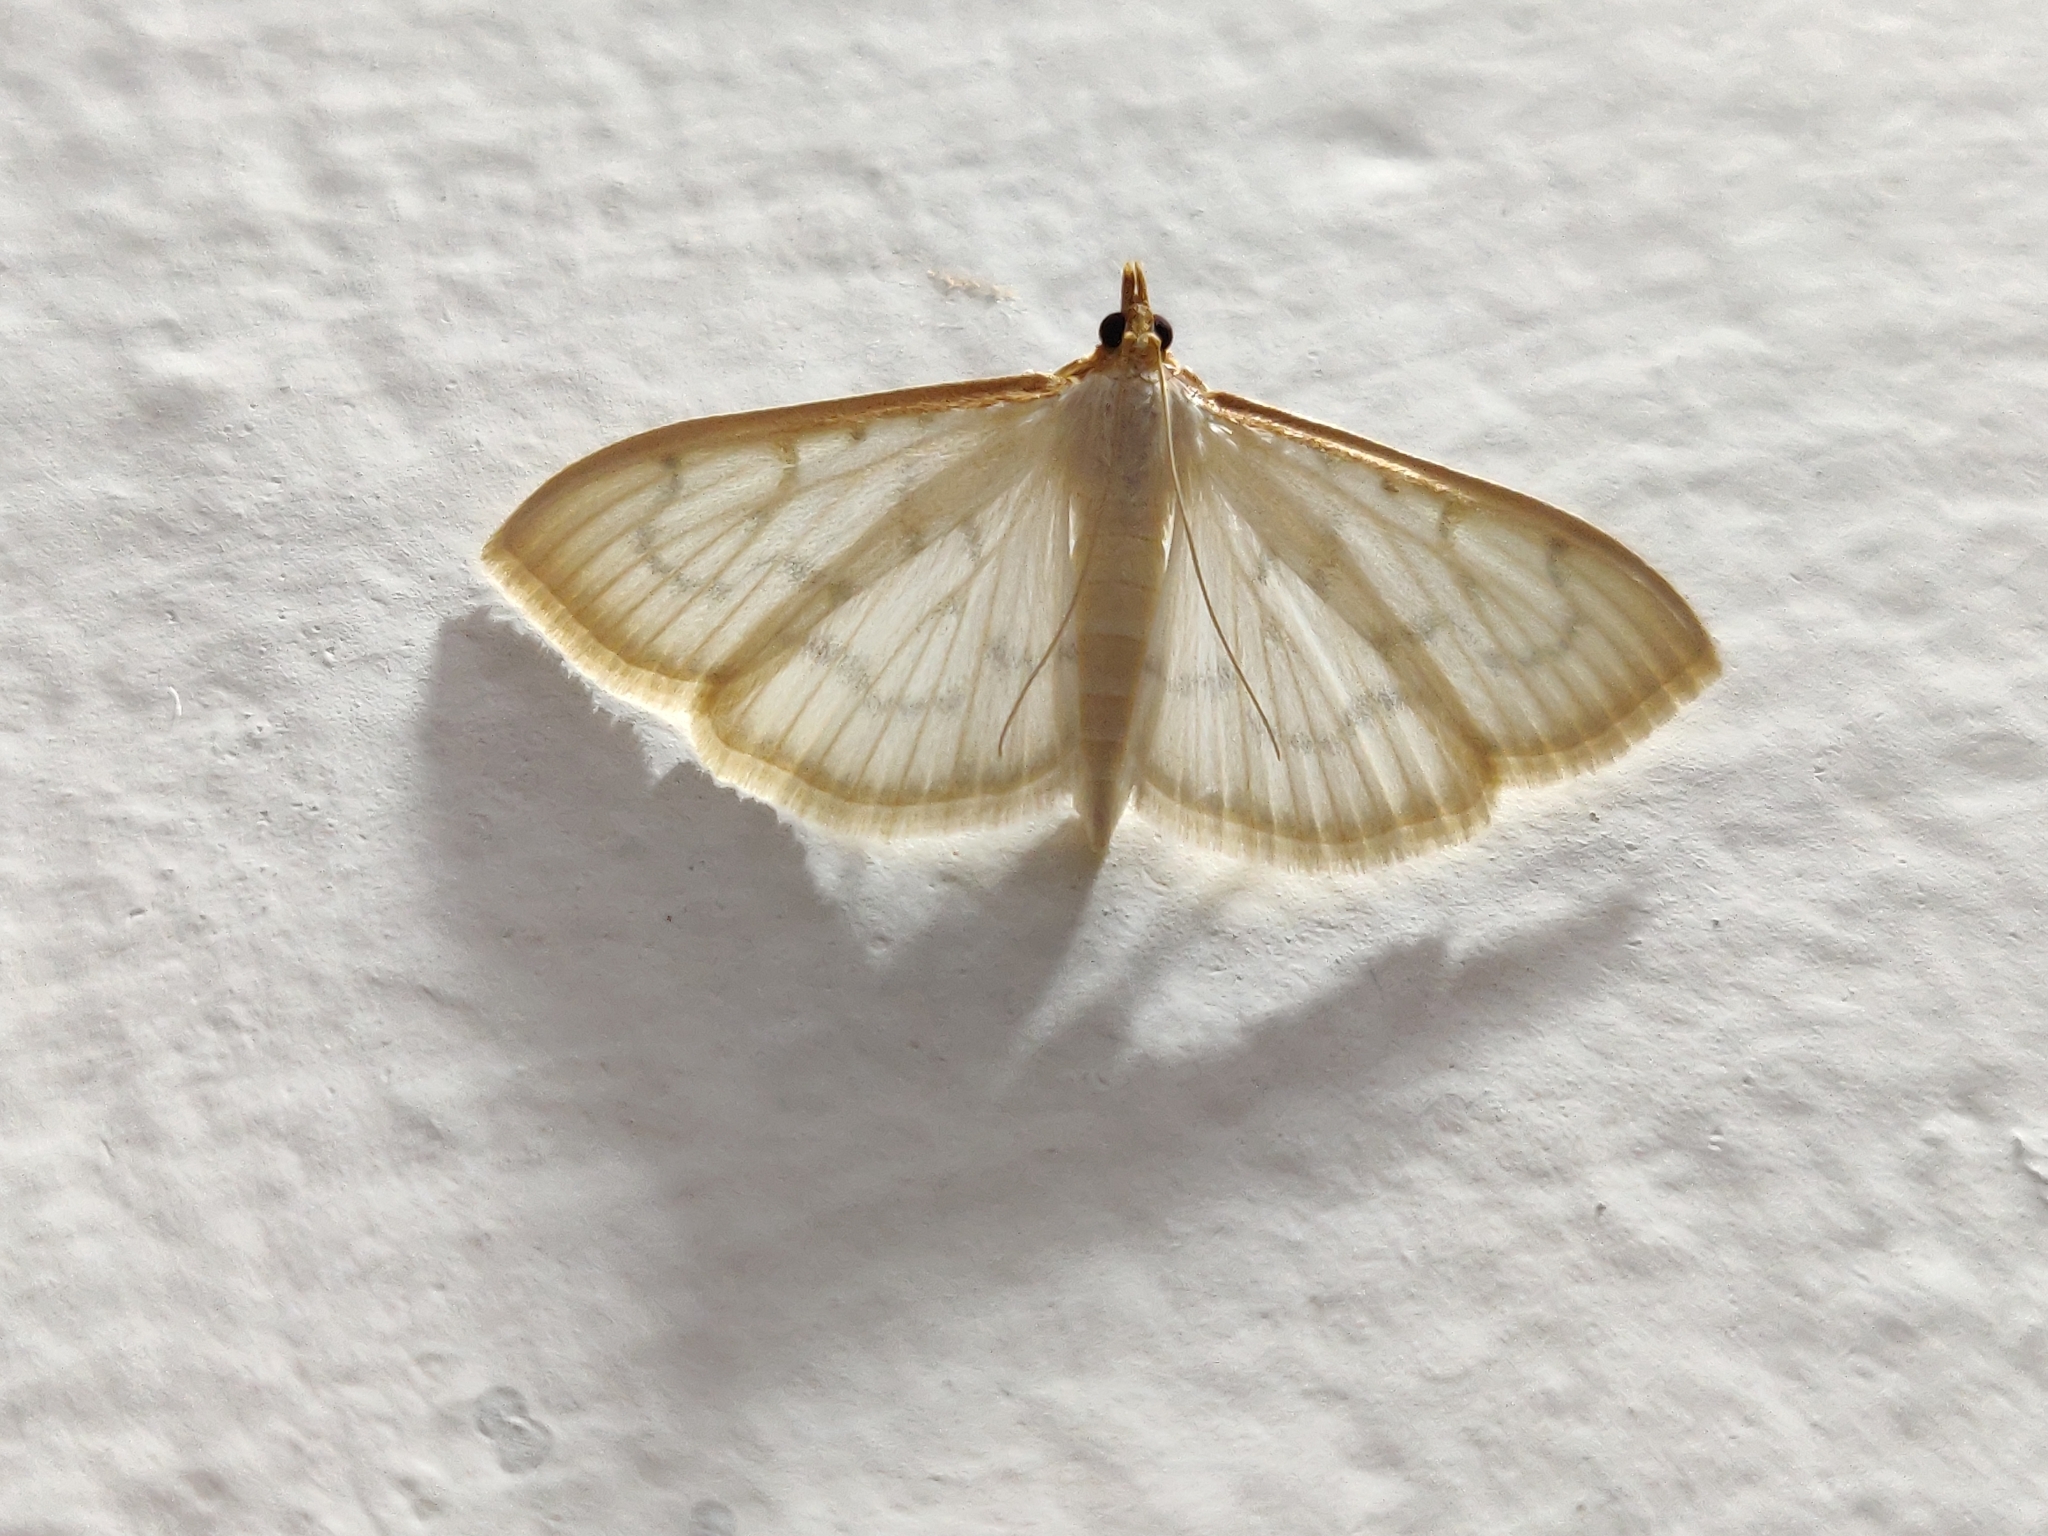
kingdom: Animalia
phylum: Arthropoda
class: Insecta
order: Lepidoptera
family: Crambidae
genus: Pyrausta
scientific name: Pyrausta testalis
